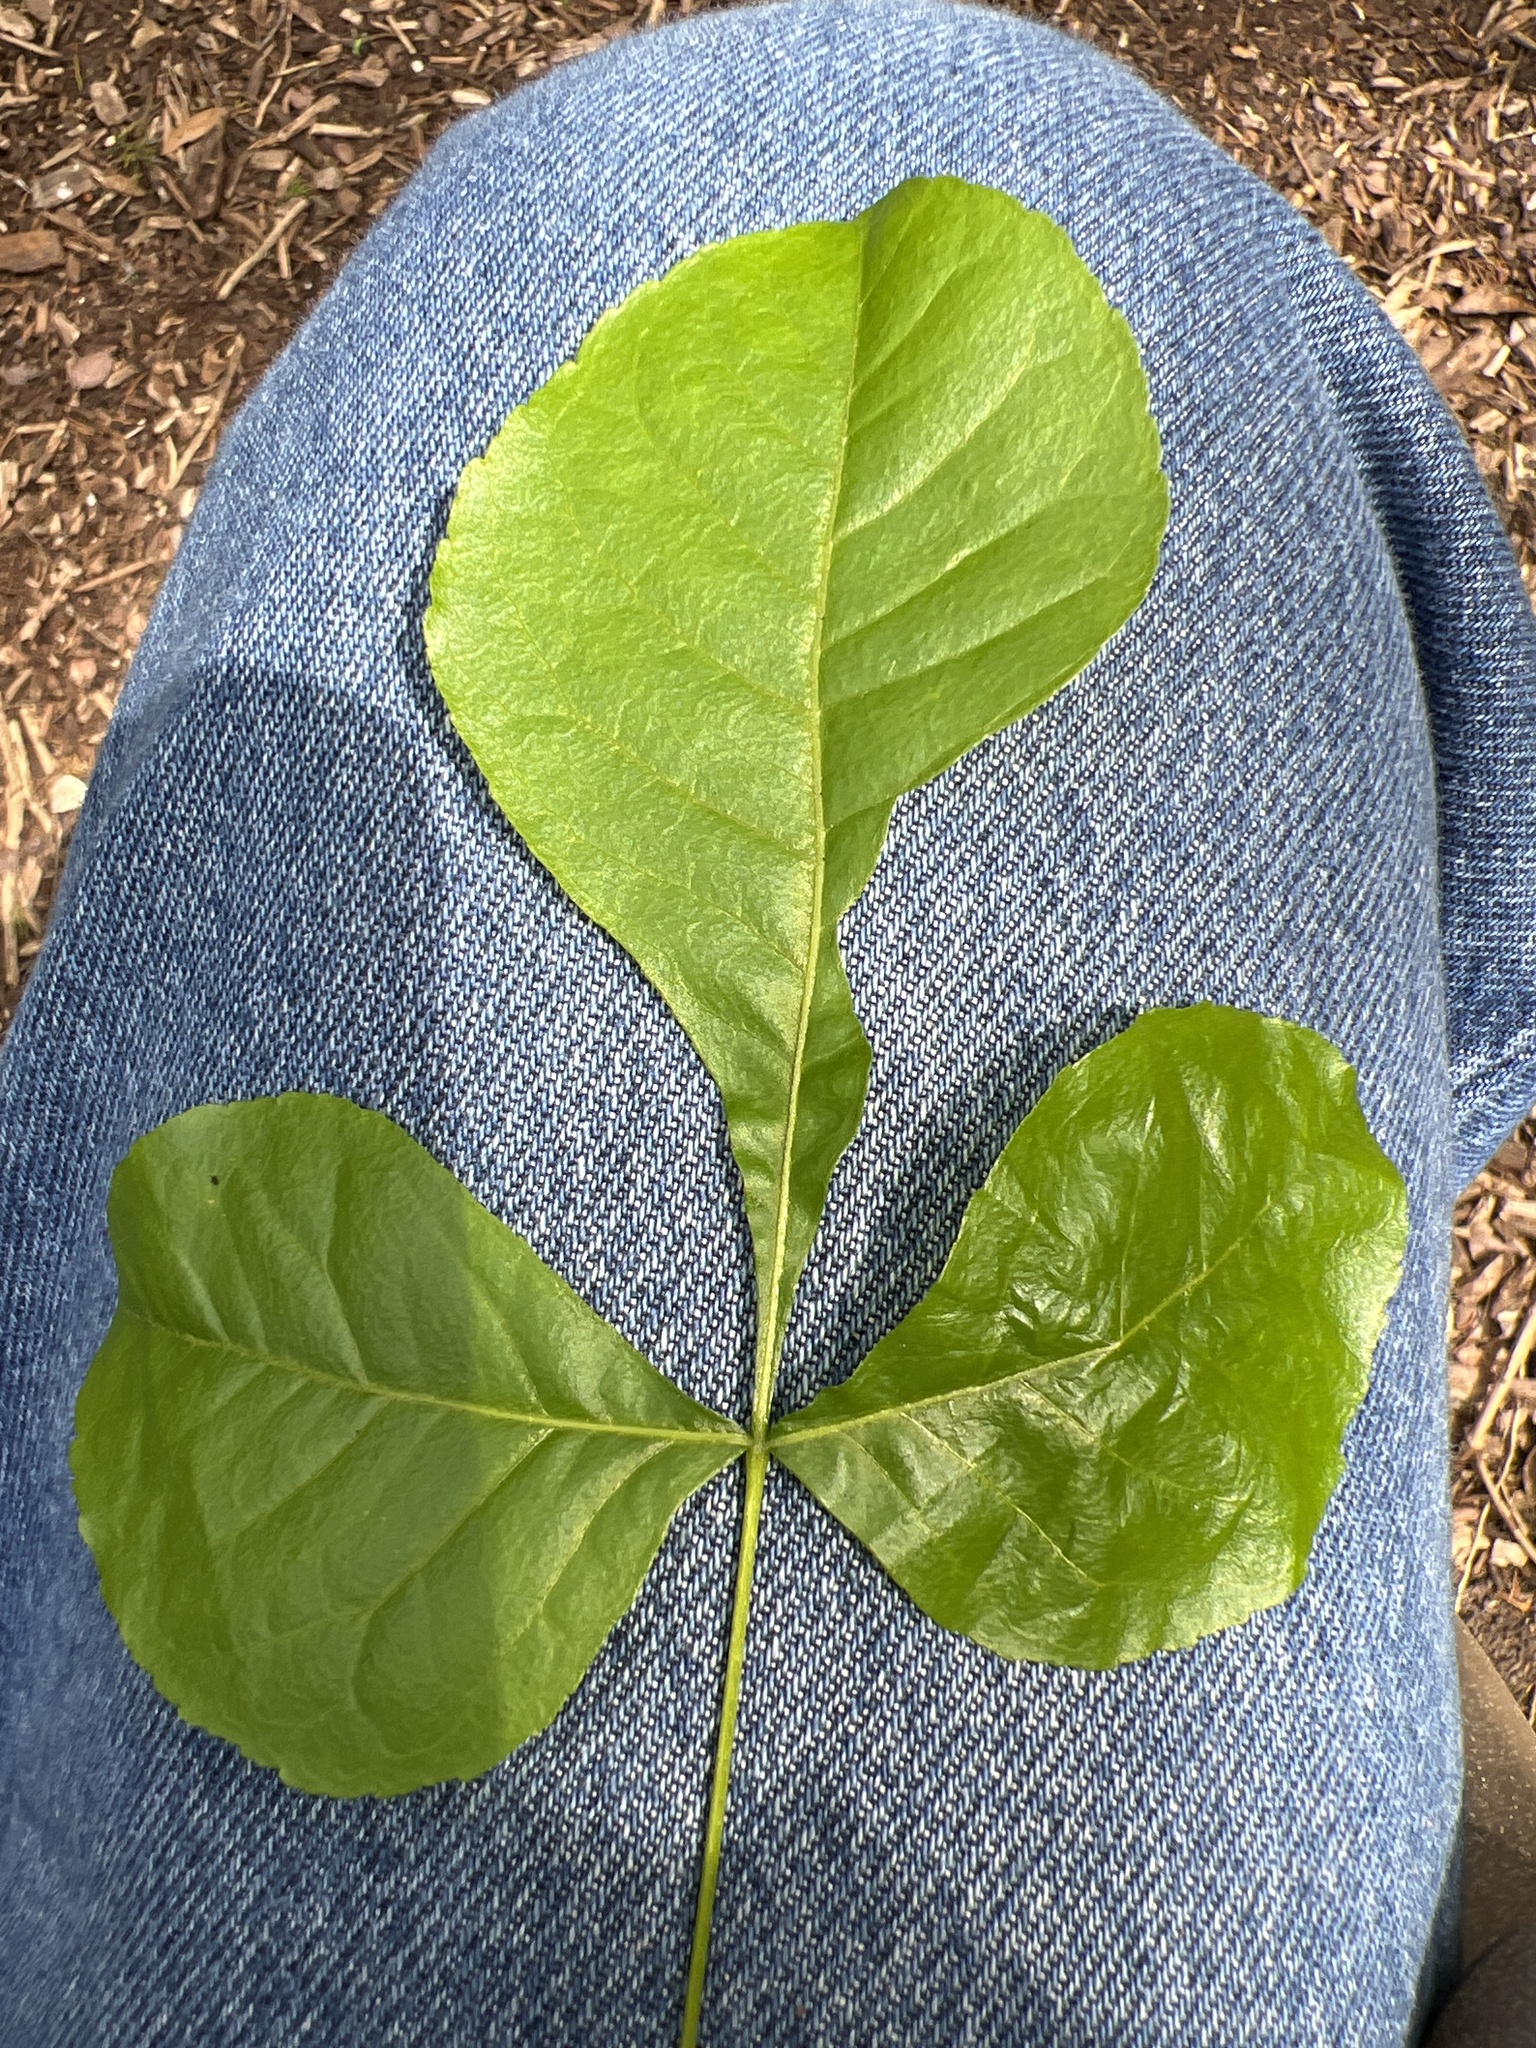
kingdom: Plantae
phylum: Tracheophyta
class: Magnoliopsida
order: Sapindales
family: Rutaceae
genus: Ptelea
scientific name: Ptelea trifoliata
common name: Common hop-tree
